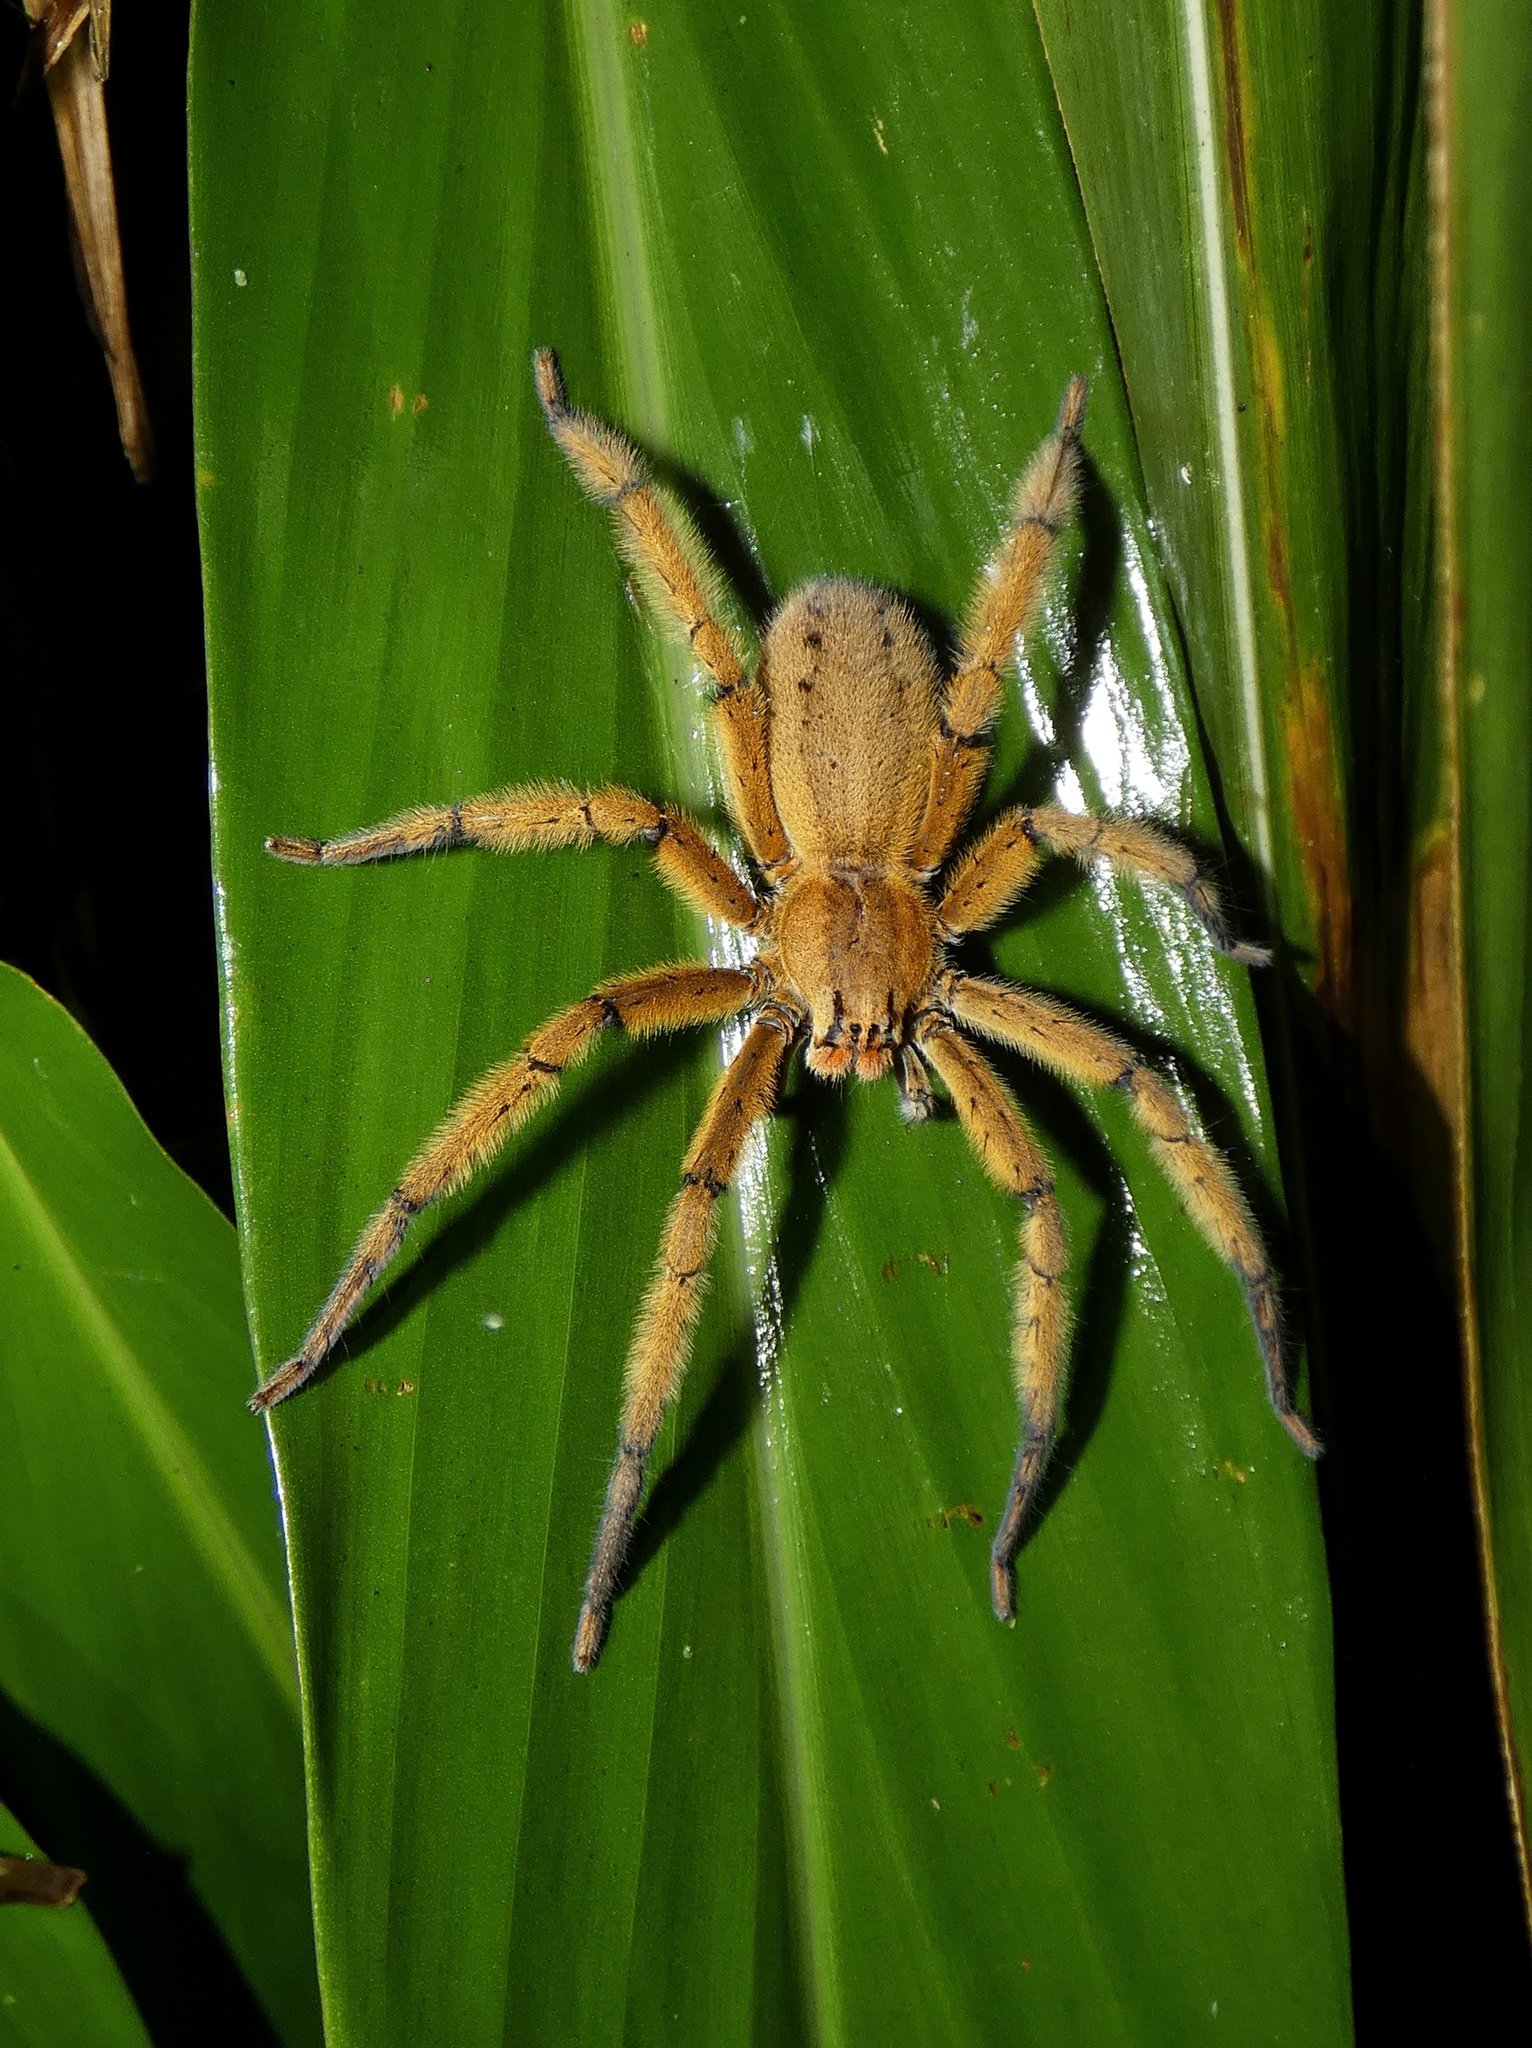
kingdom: Animalia
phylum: Arthropoda
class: Arachnida
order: Araneae
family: Trechaleidae
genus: Cupiennius
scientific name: Cupiennius getazi
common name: Wandering spiders
